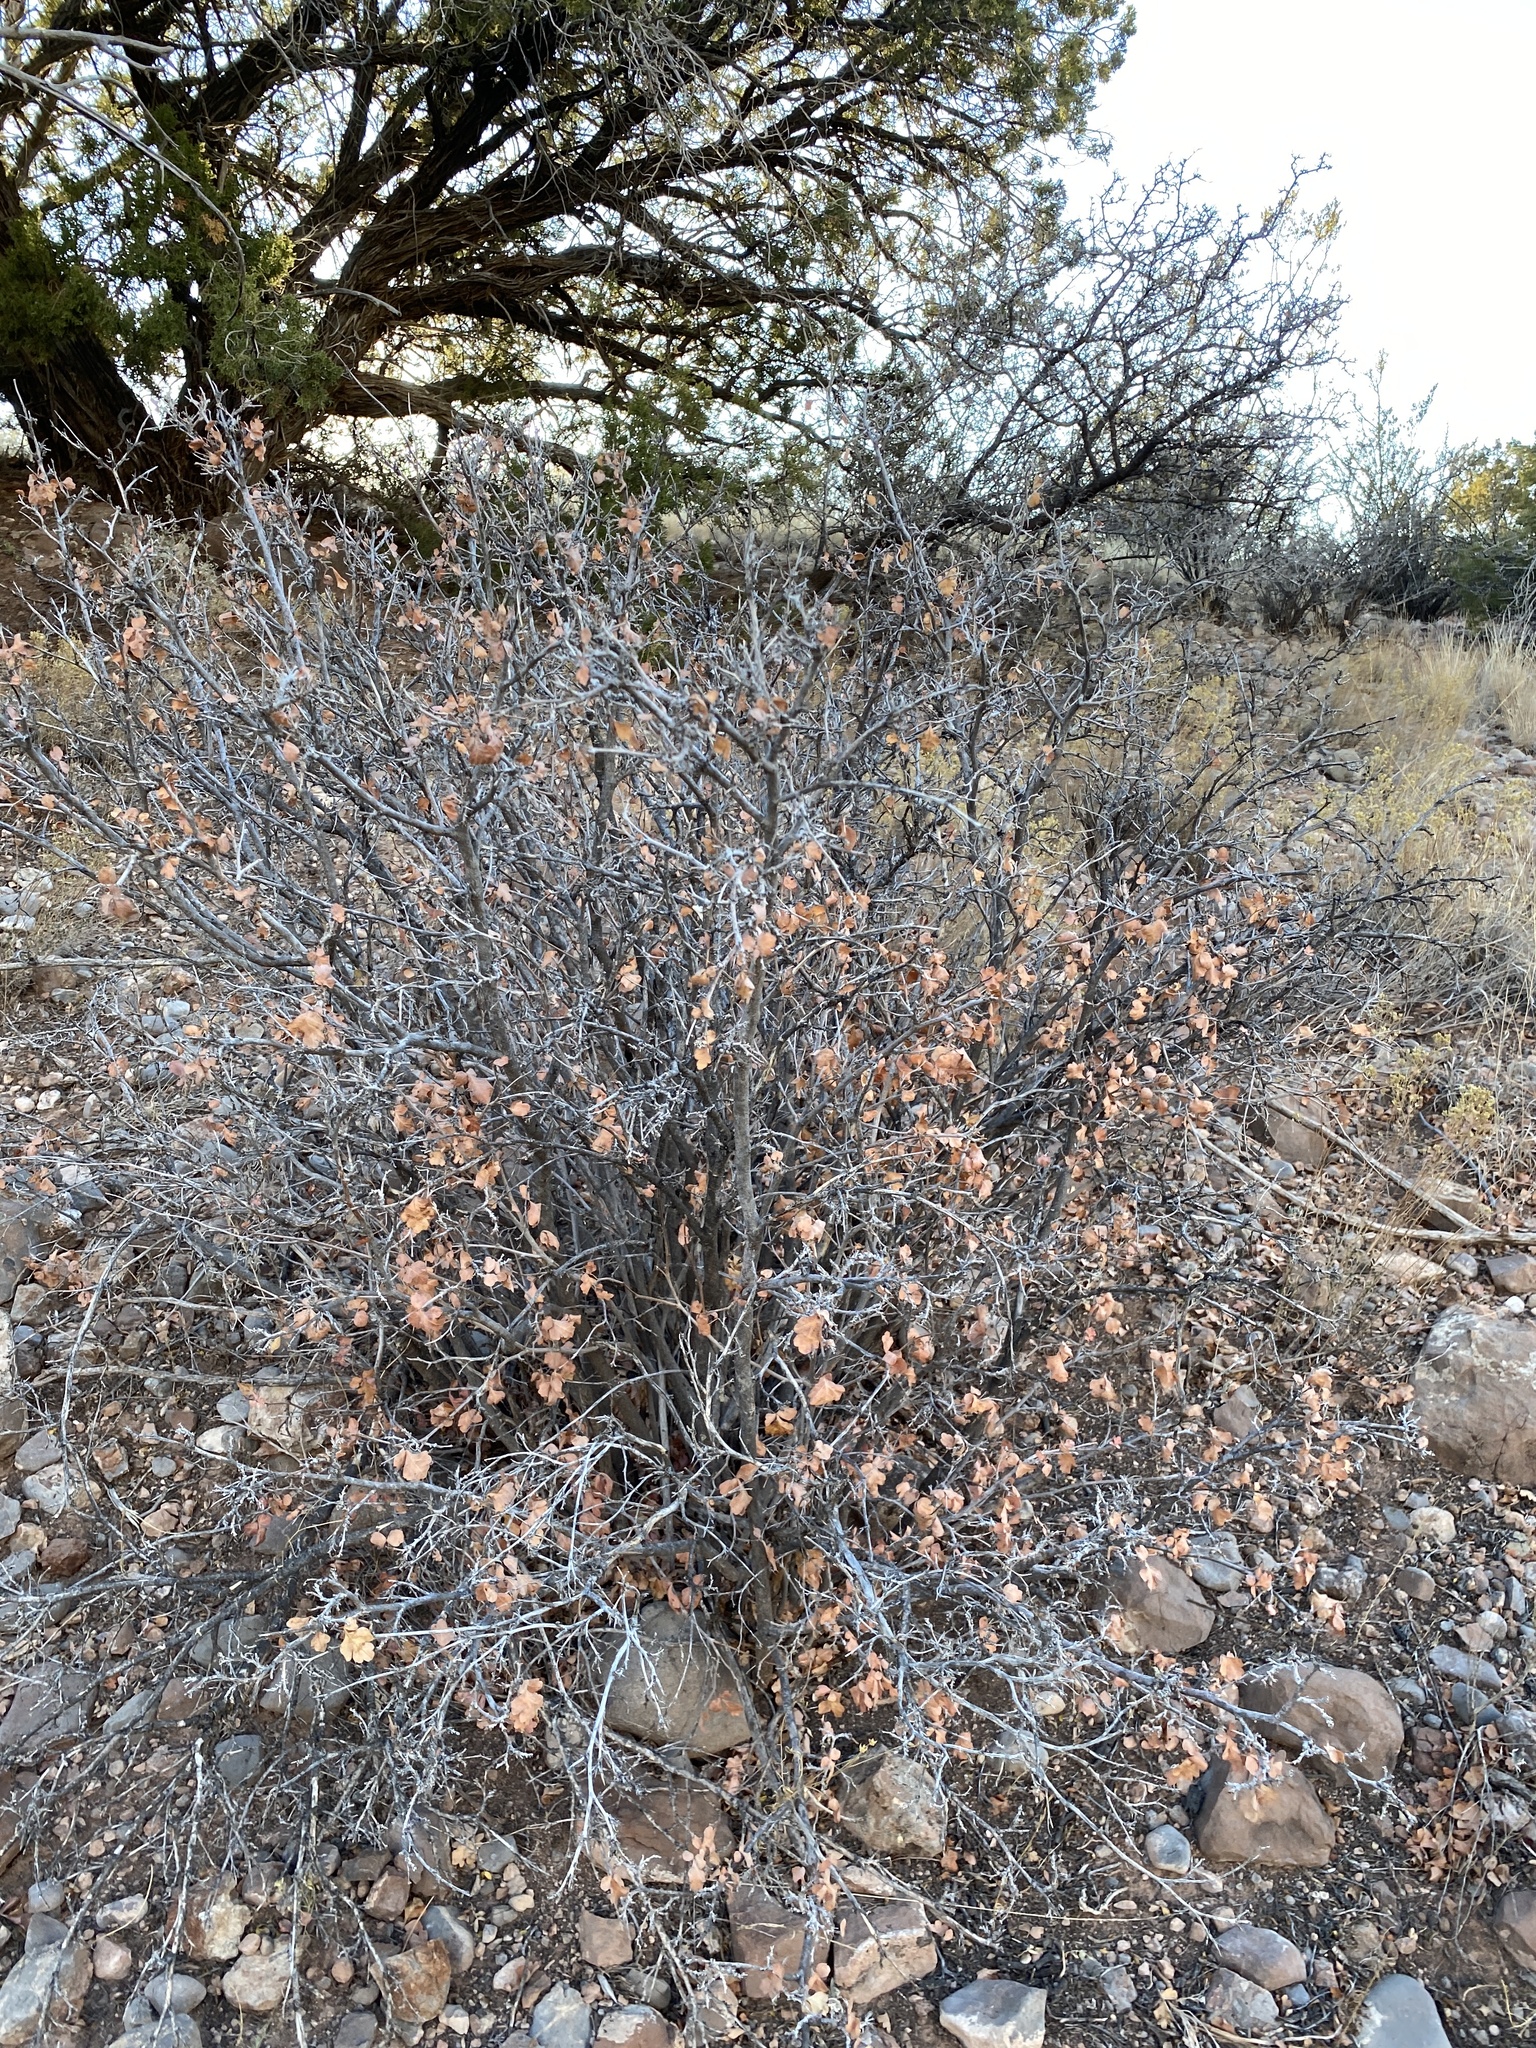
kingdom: Plantae
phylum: Tracheophyta
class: Magnoliopsida
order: Sapindales
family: Anacardiaceae
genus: Rhus
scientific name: Rhus aromatica
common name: Aromatic sumac
